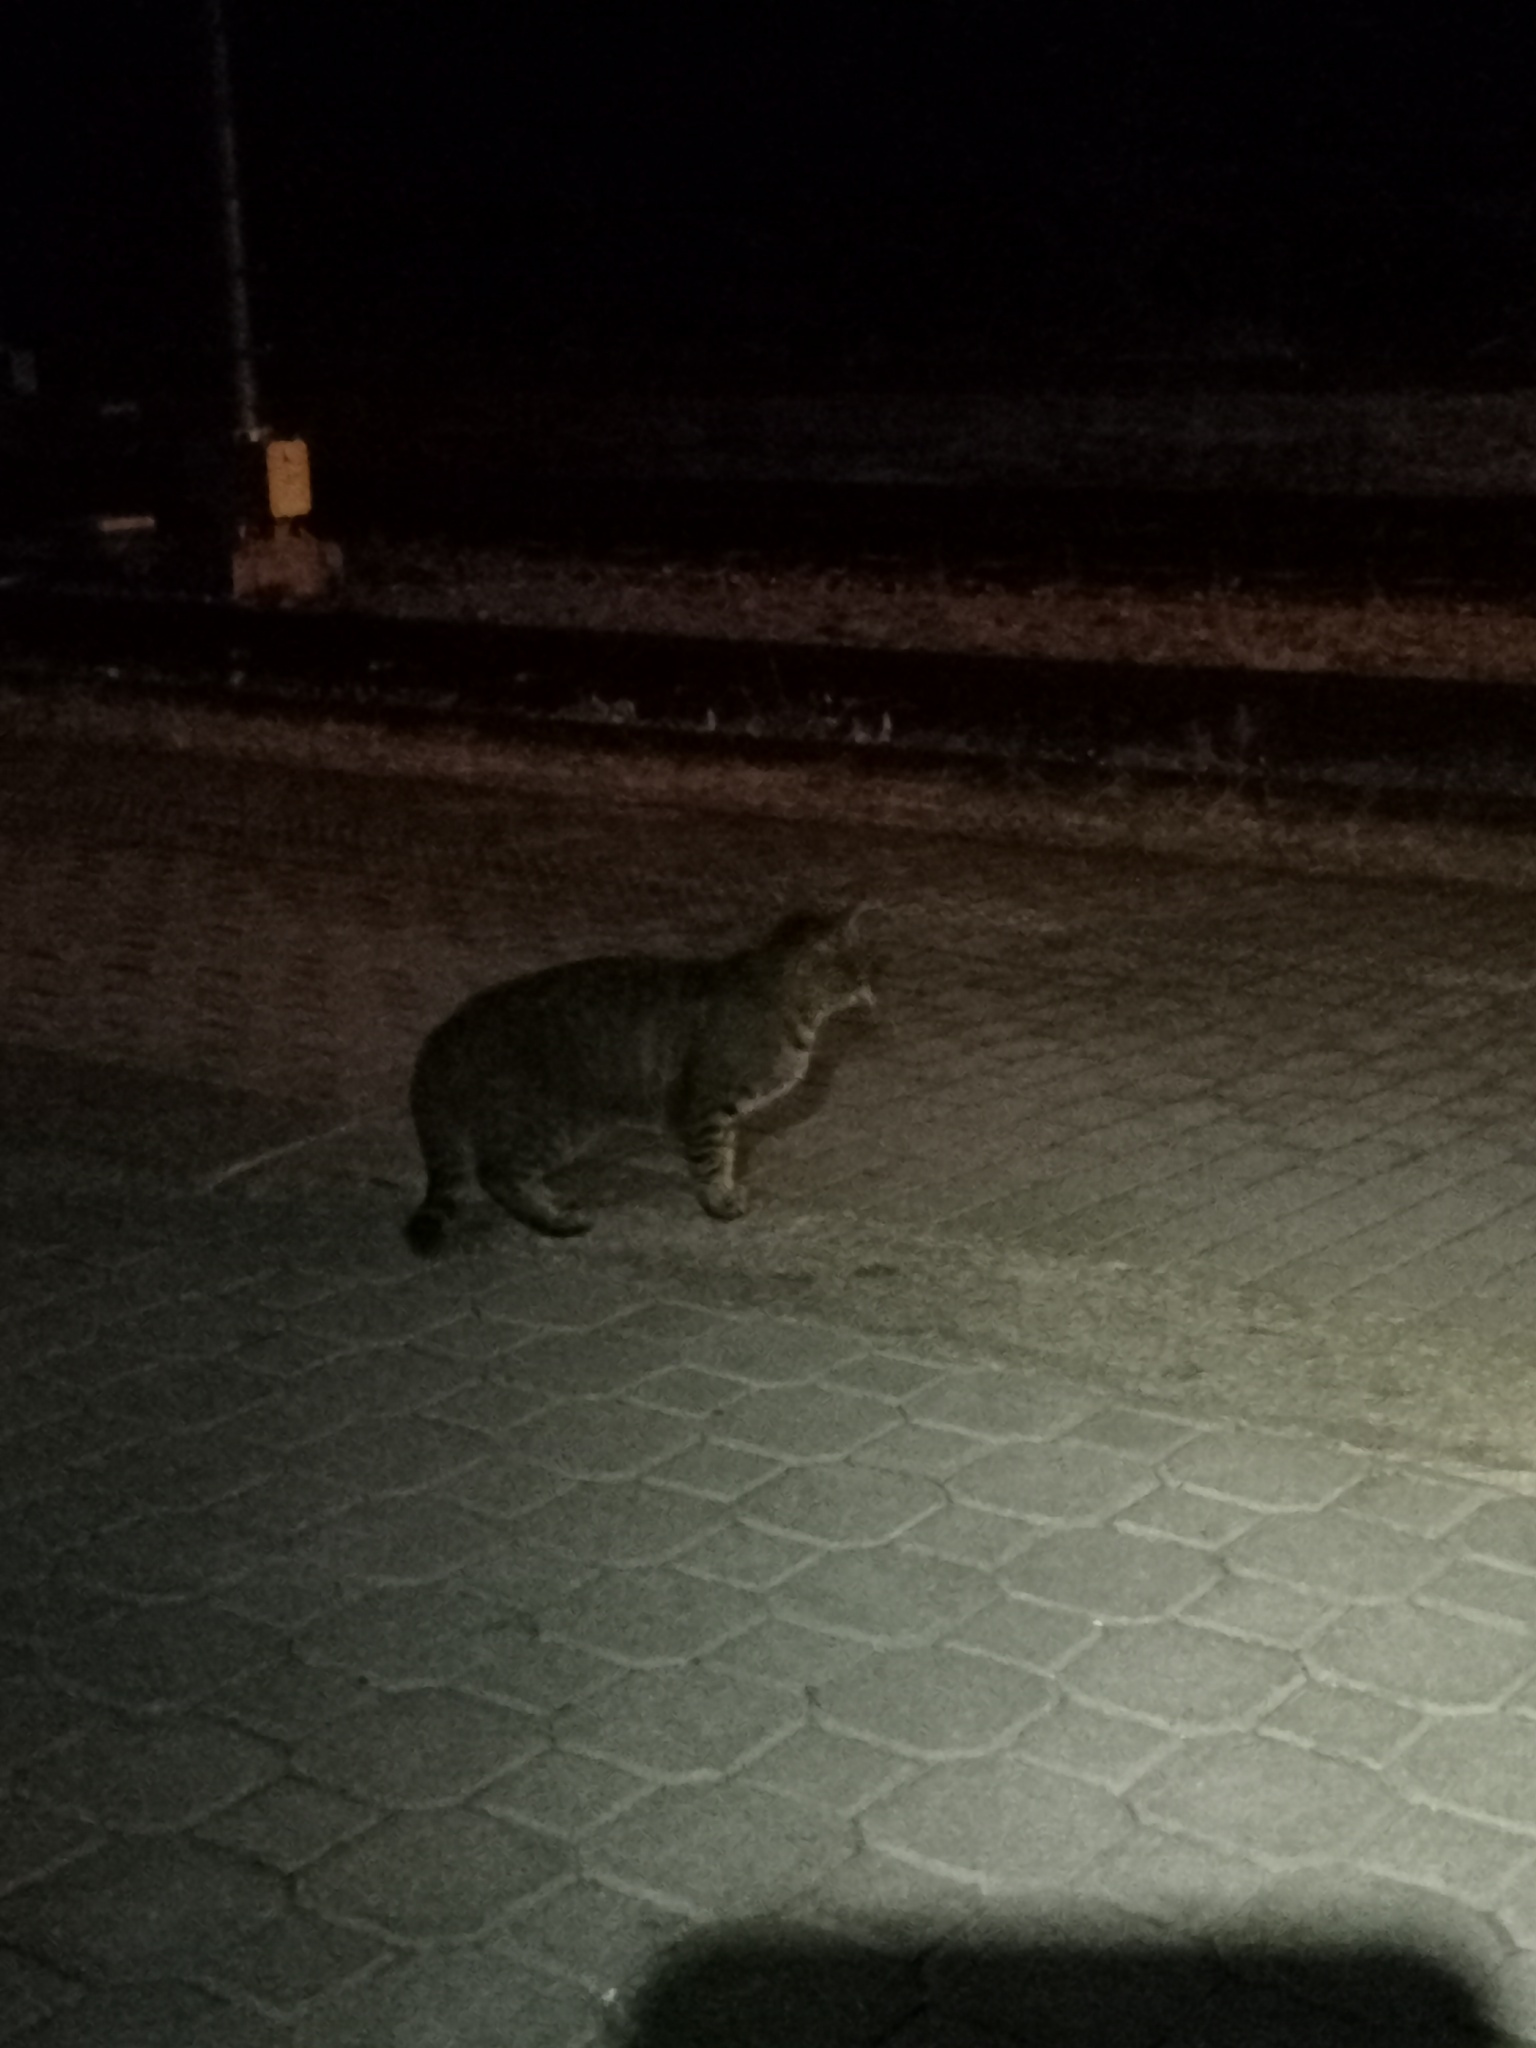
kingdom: Animalia
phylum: Chordata
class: Mammalia
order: Carnivora
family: Felidae
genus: Felis
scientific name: Felis catus
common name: Domestic cat
